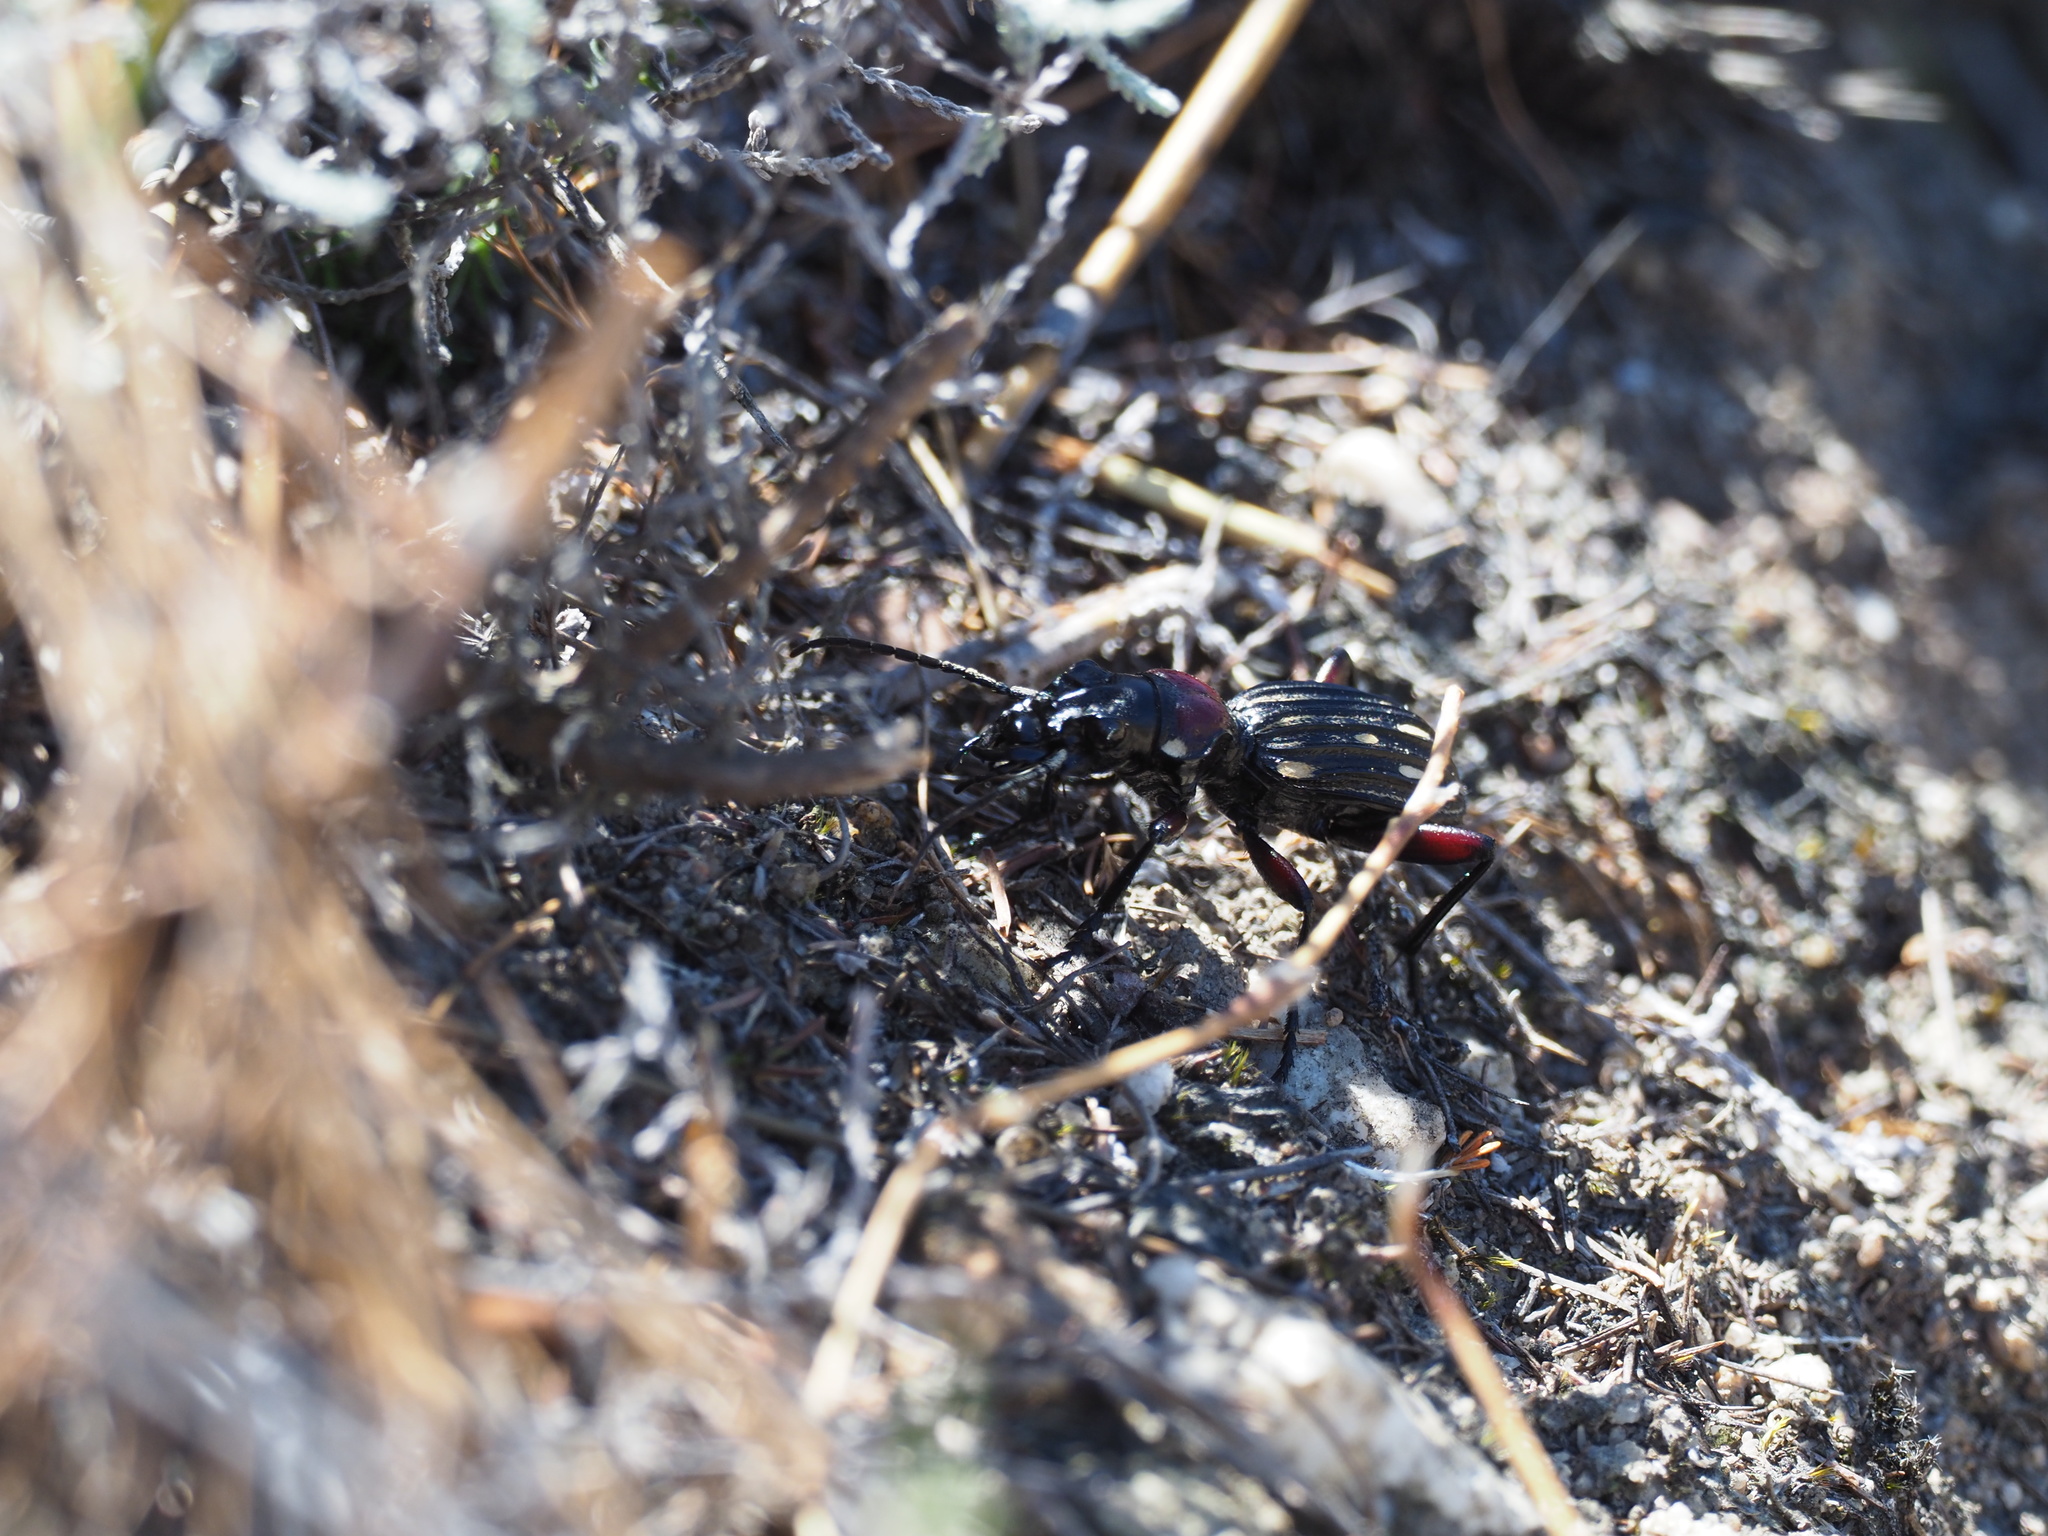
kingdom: Animalia
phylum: Arthropoda
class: Insecta
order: Coleoptera
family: Carabidae
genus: Anthia
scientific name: Anthia decemguttata
